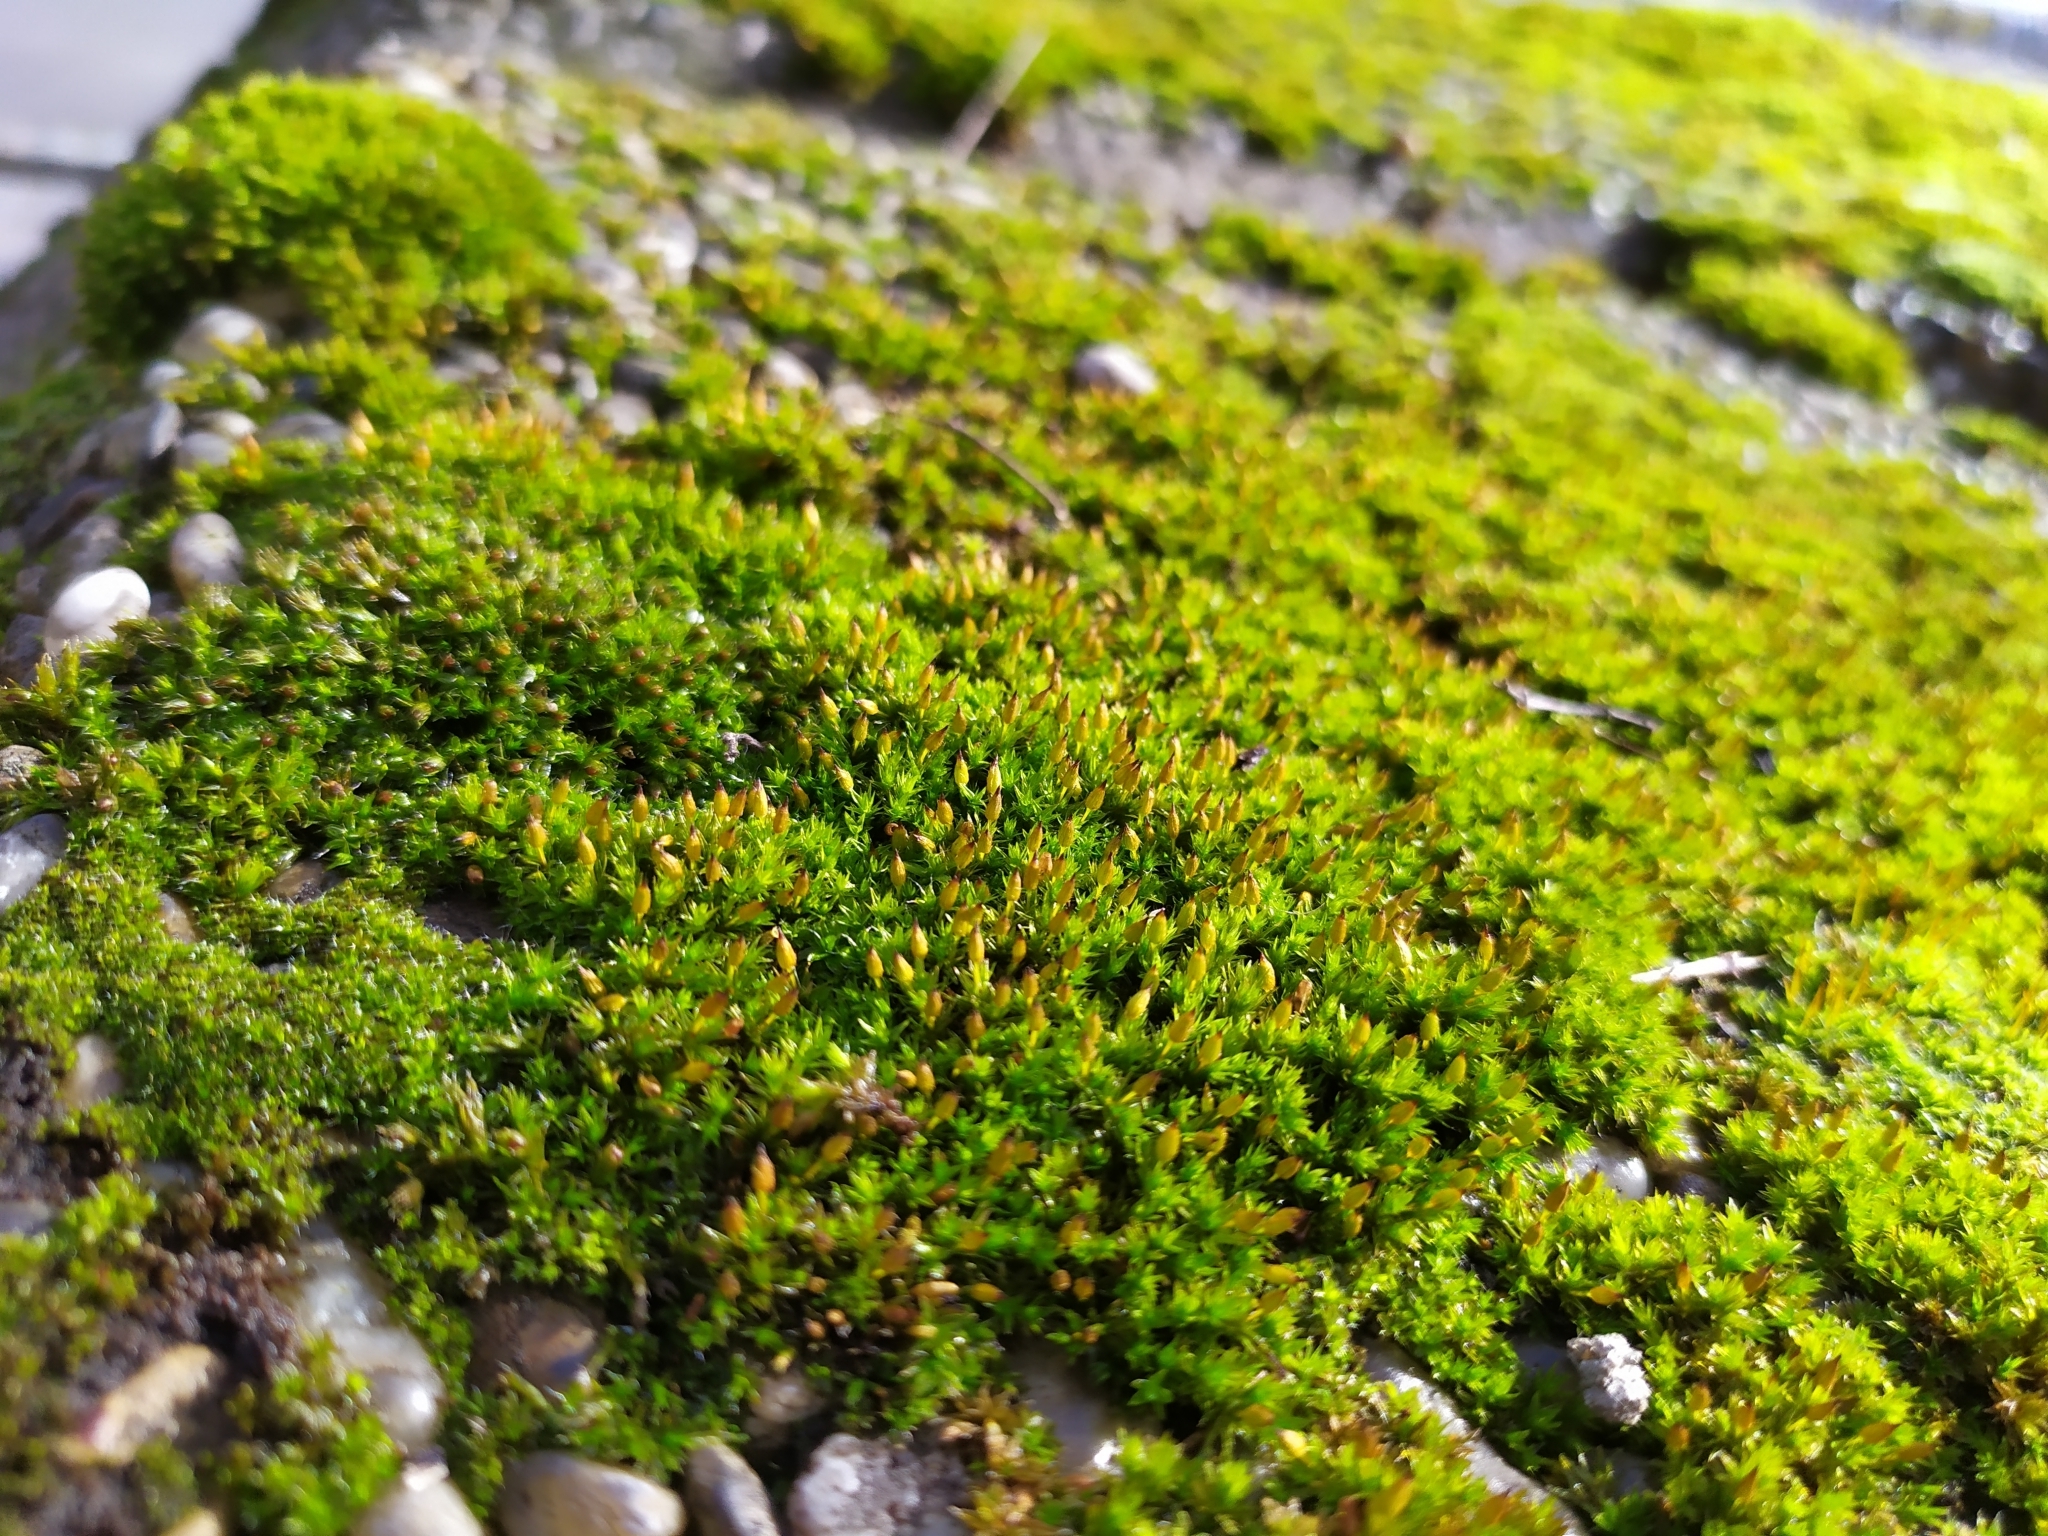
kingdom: Plantae
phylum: Bryophyta
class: Bryopsida
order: Orthotrichales
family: Orthotrichaceae
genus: Orthotrichum
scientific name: Orthotrichum anomalum
